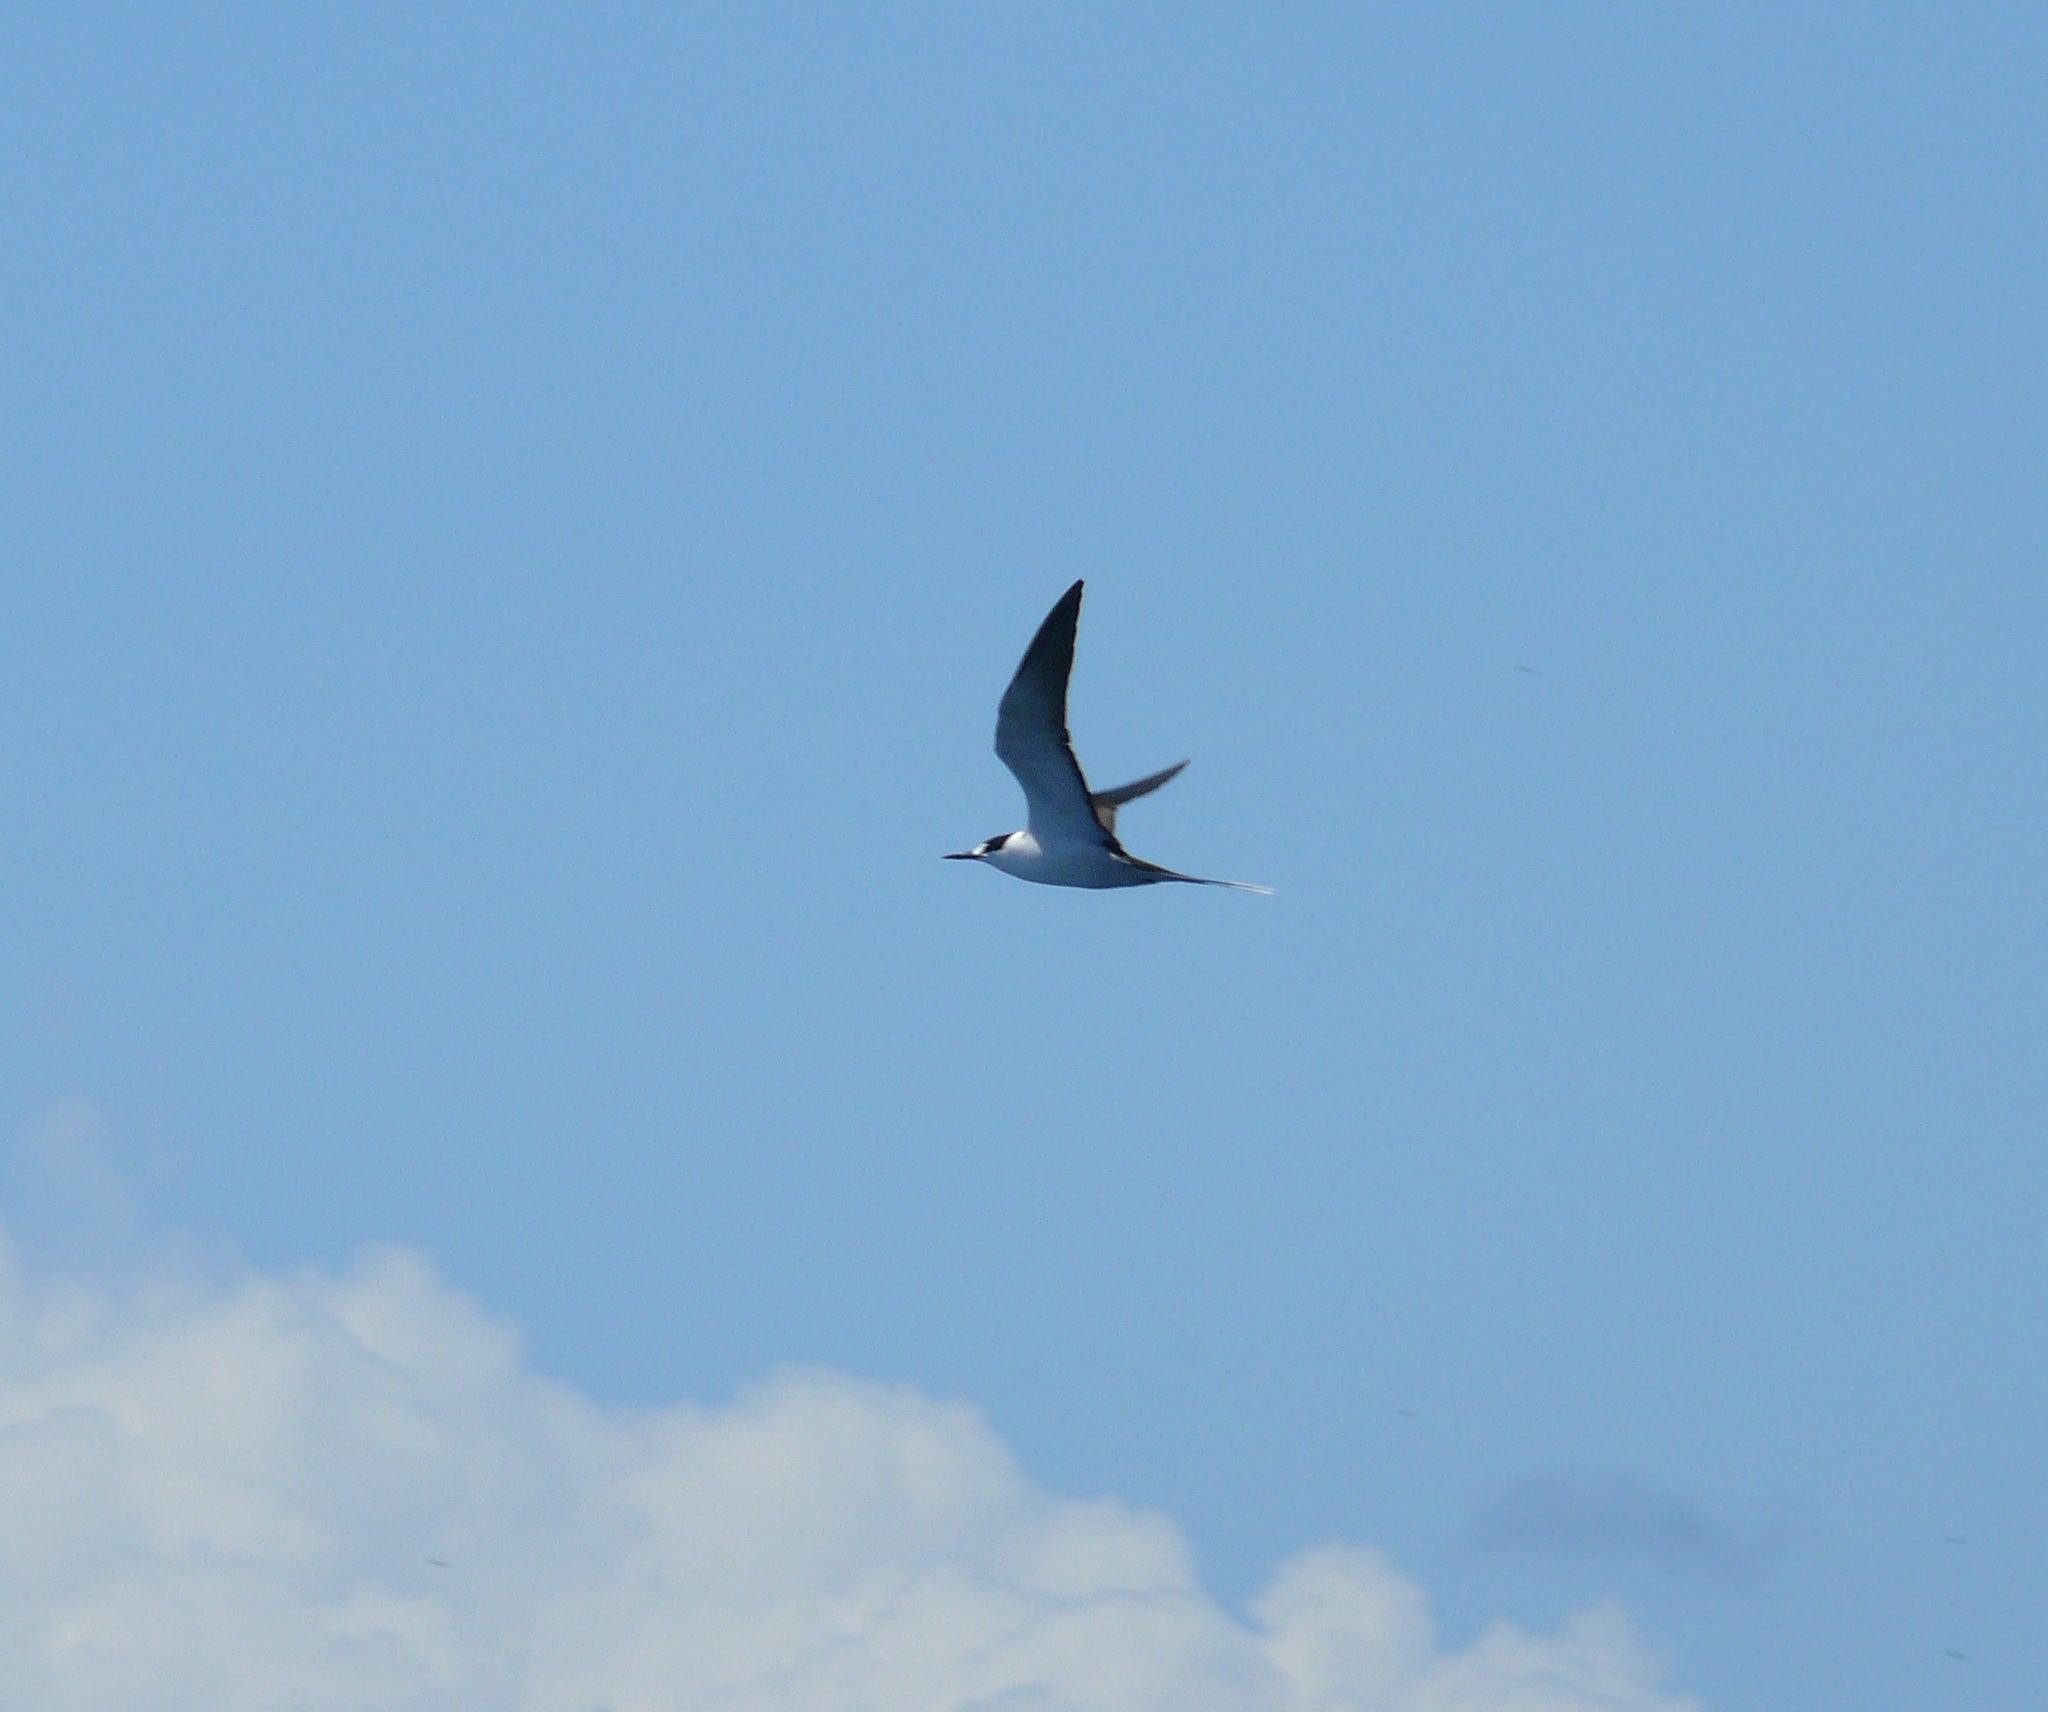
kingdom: Animalia
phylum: Chordata
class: Aves
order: Charadriiformes
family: Laridae
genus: Onychoprion
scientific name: Onychoprion fuscatus
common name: Sooty tern
